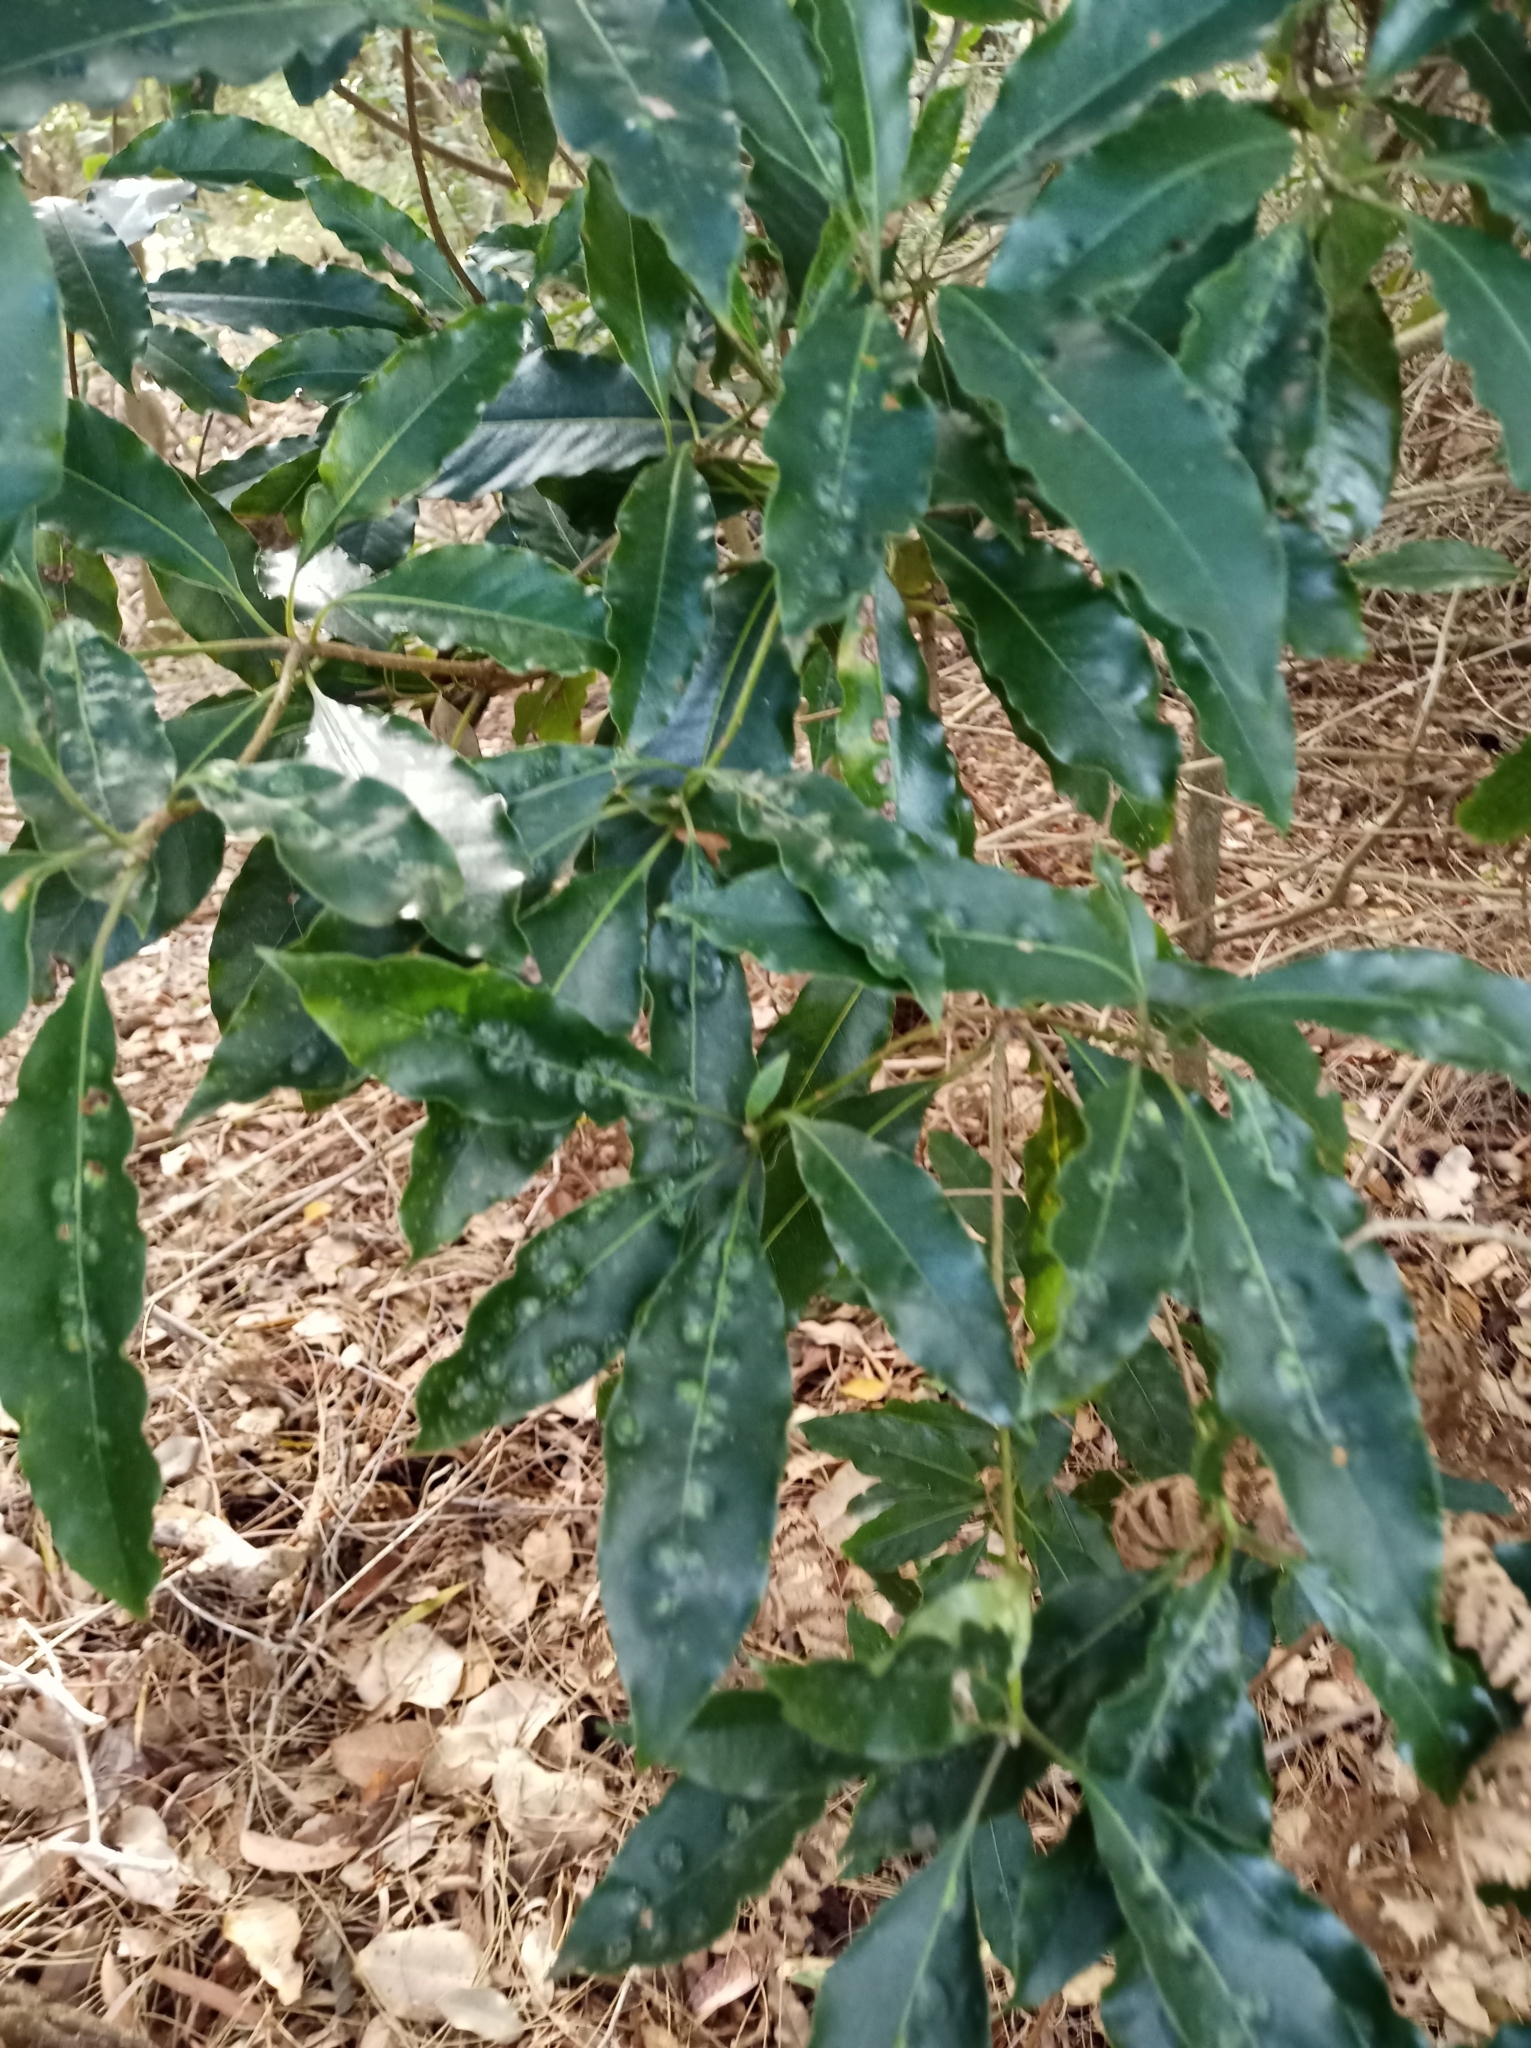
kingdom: Animalia
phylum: Arthropoda
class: Insecta
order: Diptera
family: Agromyzidae
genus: Phytoliriomyza
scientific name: Phytoliriomyza pittosporophylli
